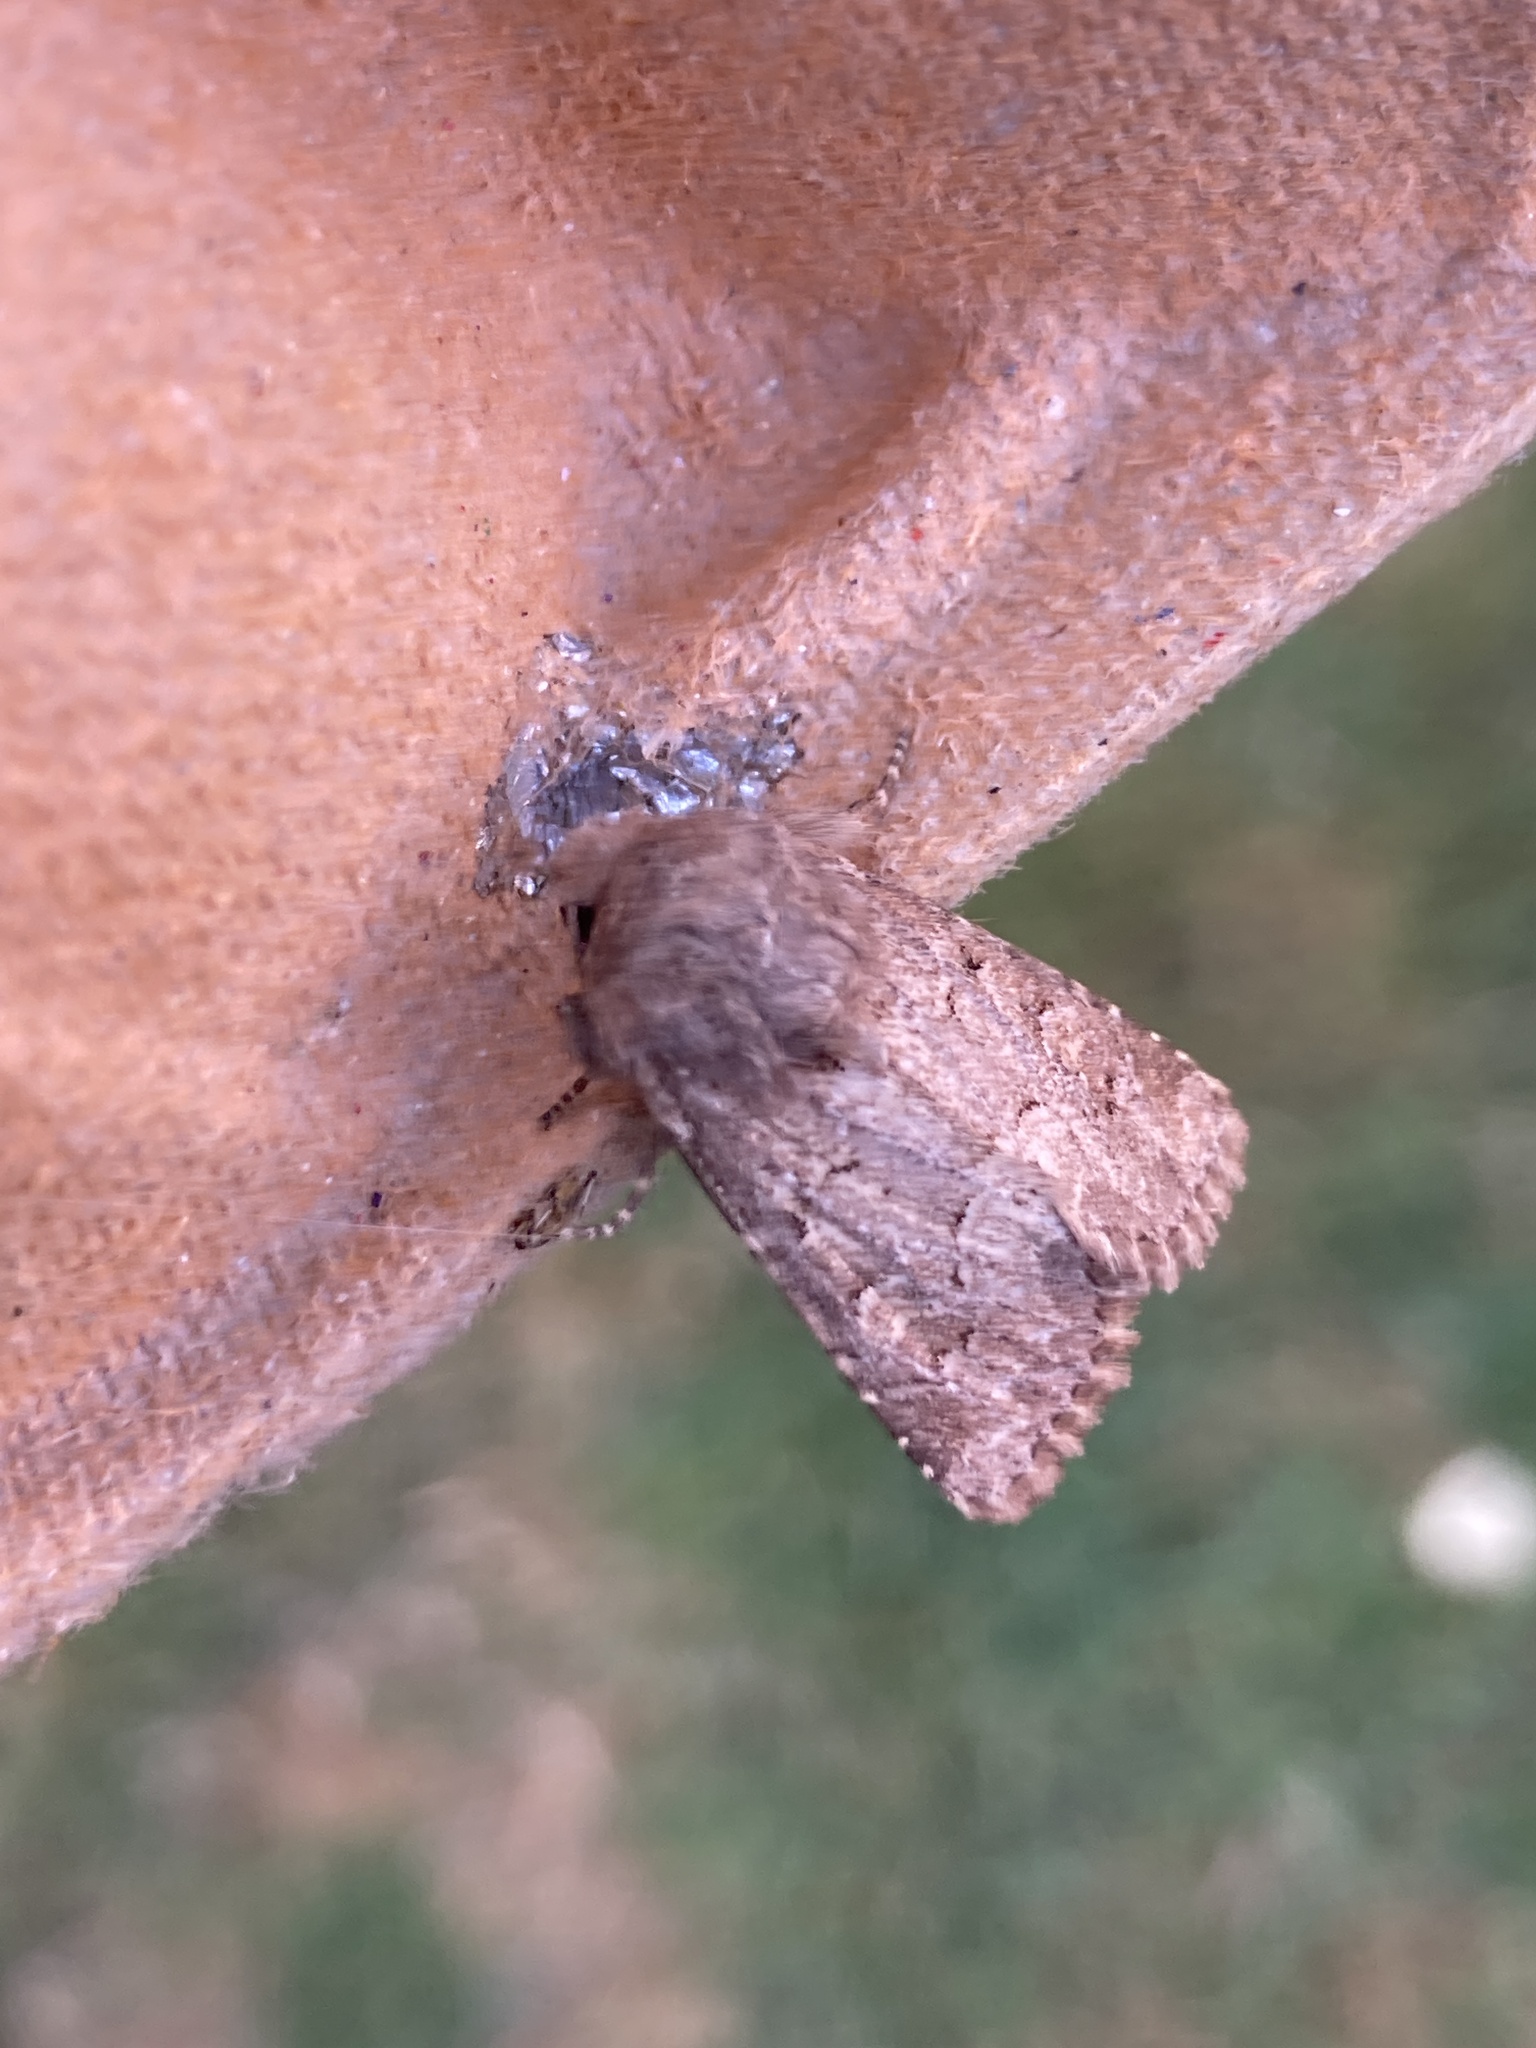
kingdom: Animalia
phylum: Arthropoda
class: Insecta
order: Lepidoptera
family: Noctuidae
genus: Luperina
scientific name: Luperina testacea
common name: Flounced rustic
